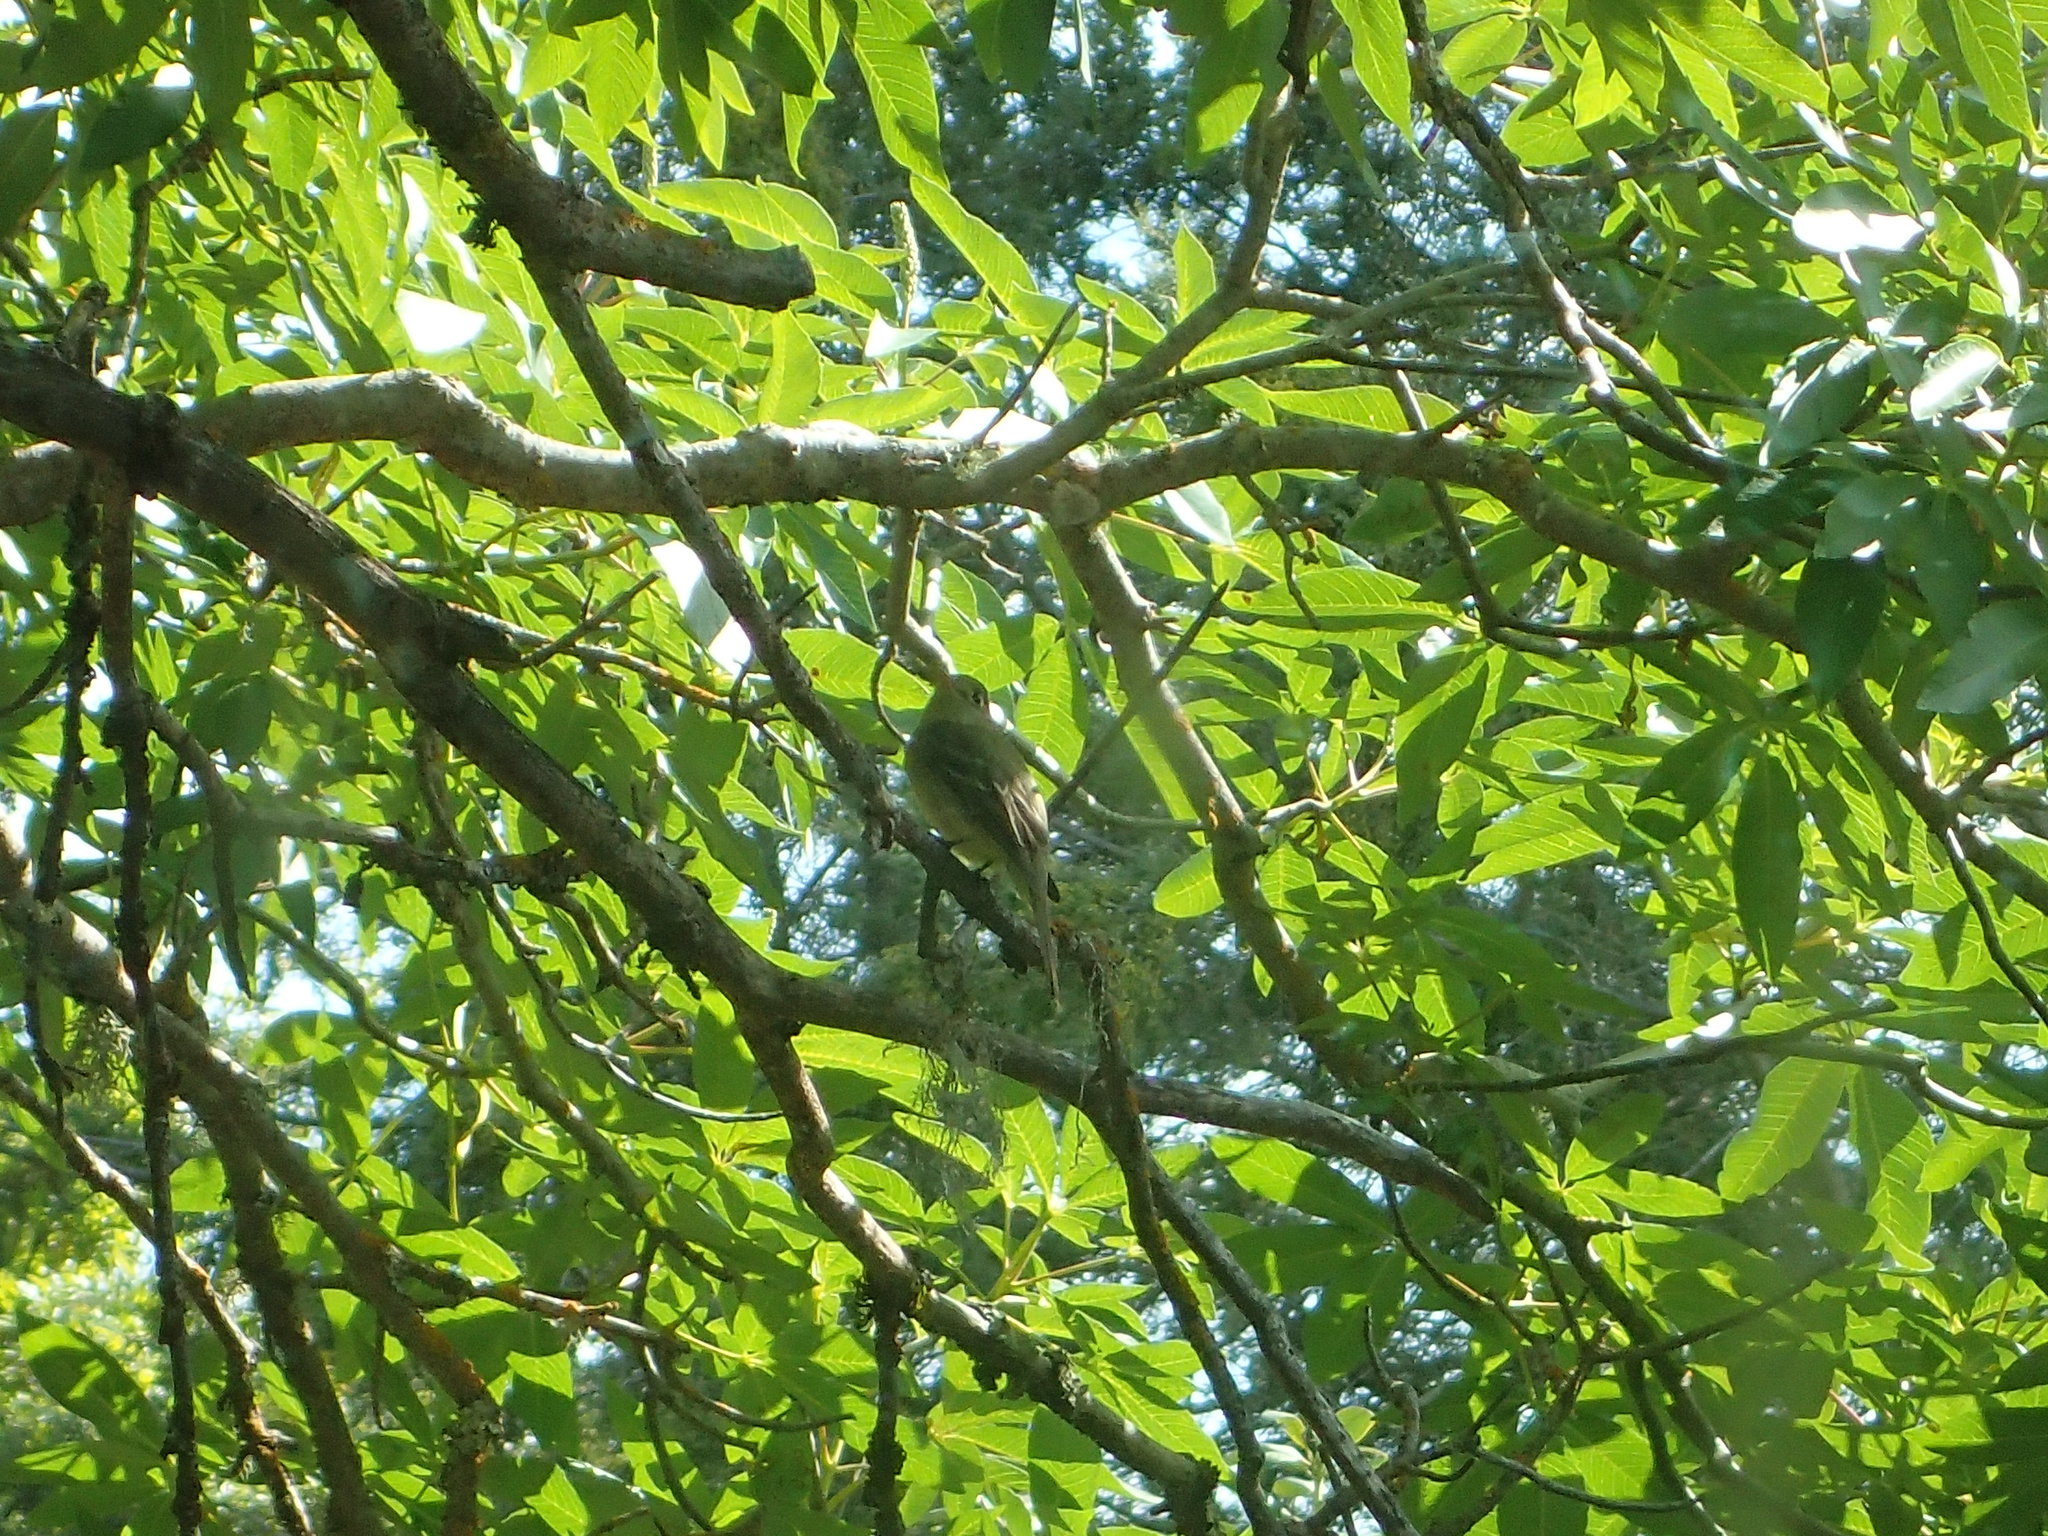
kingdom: Animalia
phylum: Chordata
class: Aves
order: Passeriformes
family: Tyrannidae
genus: Empidonax
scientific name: Empidonax difficilis
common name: Pacific-slope flycatcher
